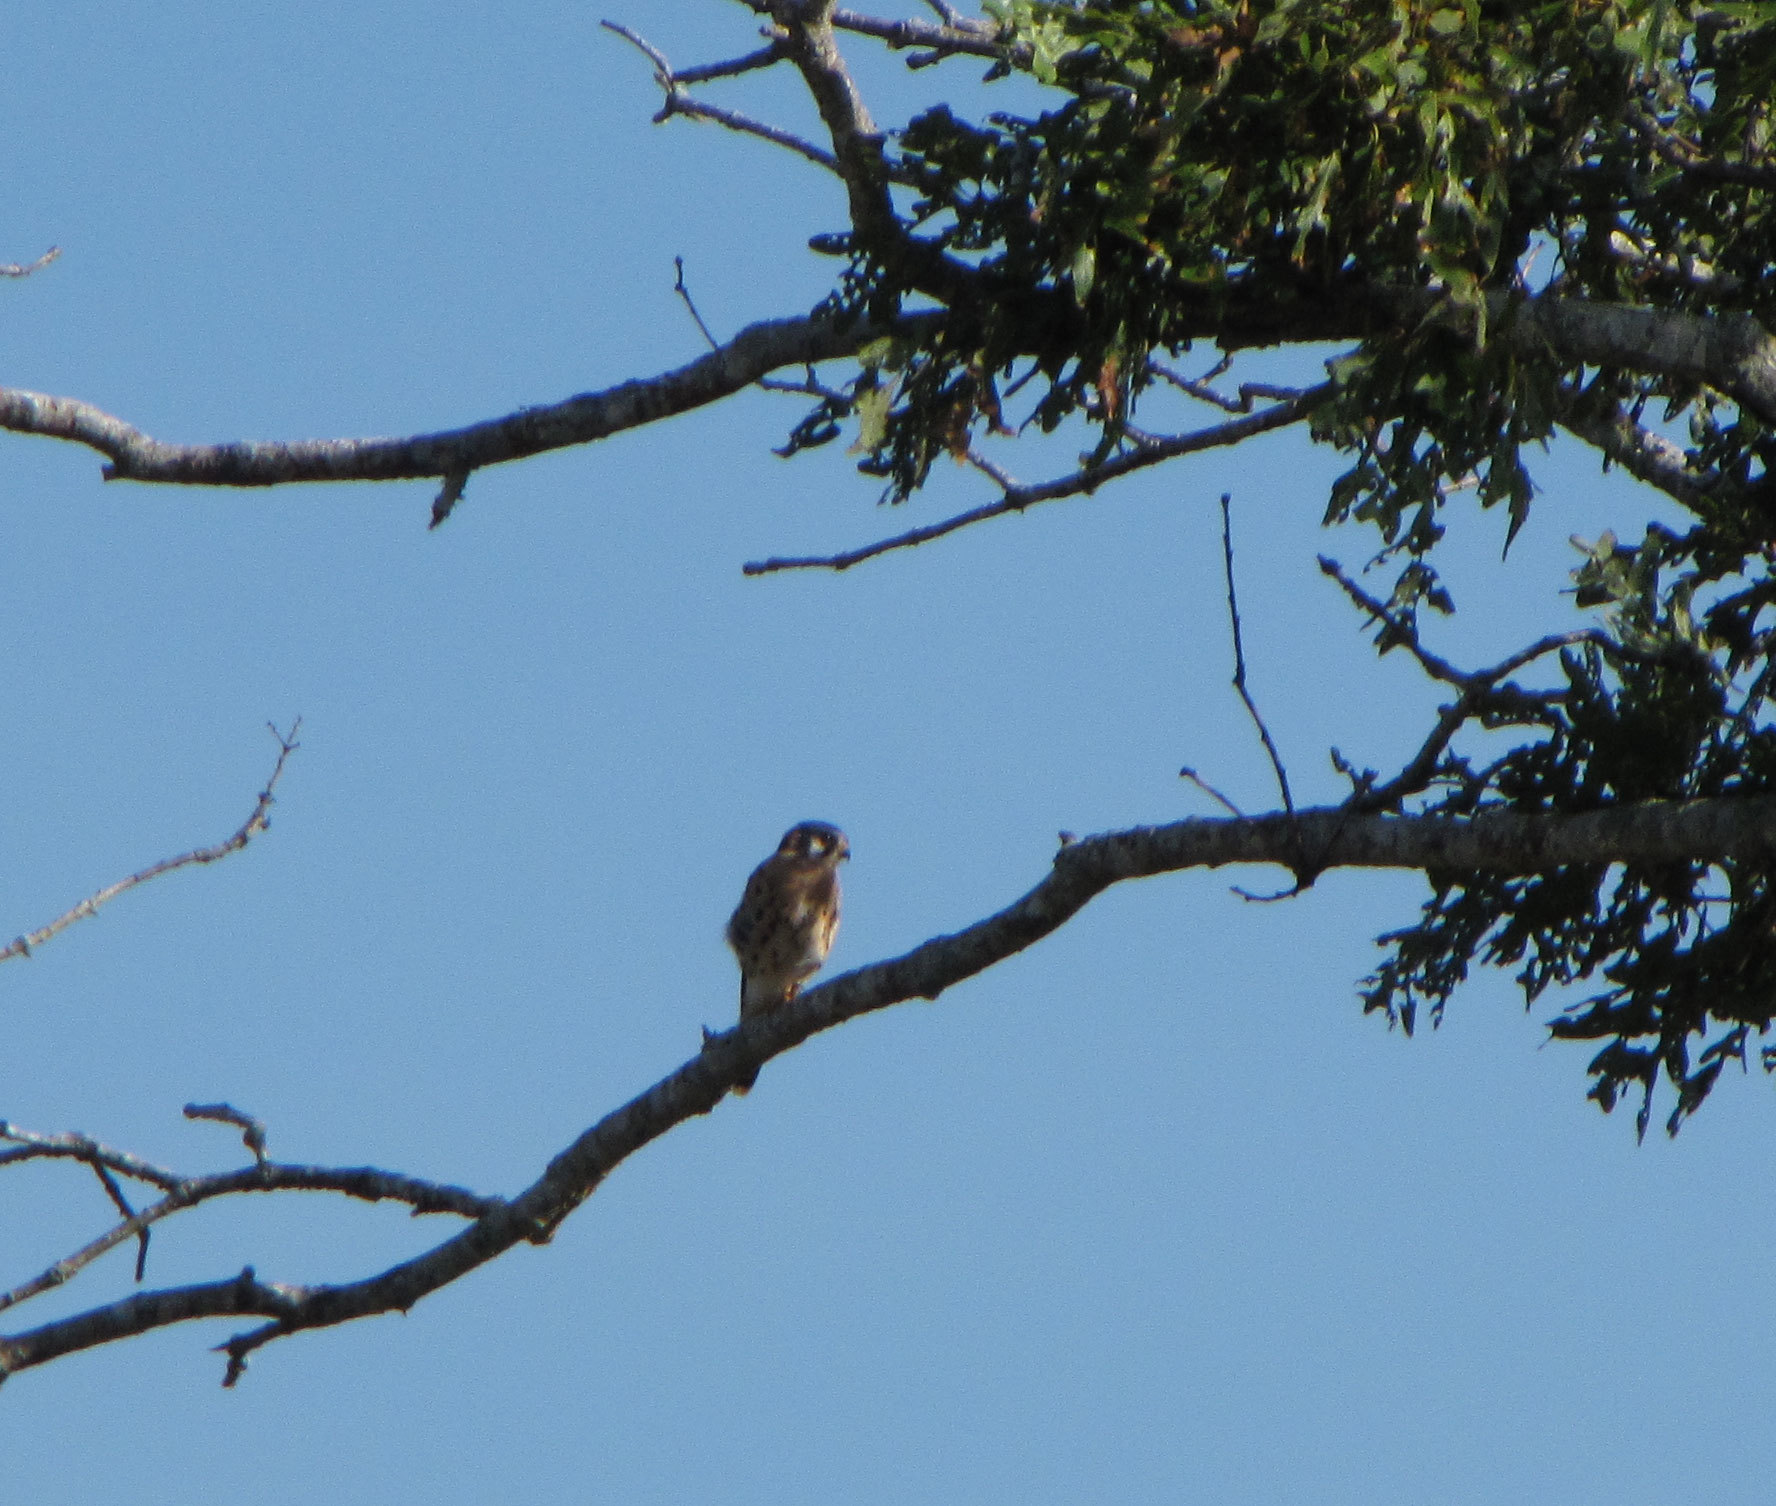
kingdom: Animalia
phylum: Chordata
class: Aves
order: Falconiformes
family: Falconidae
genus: Falco
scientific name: Falco sparverius
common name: American kestrel
